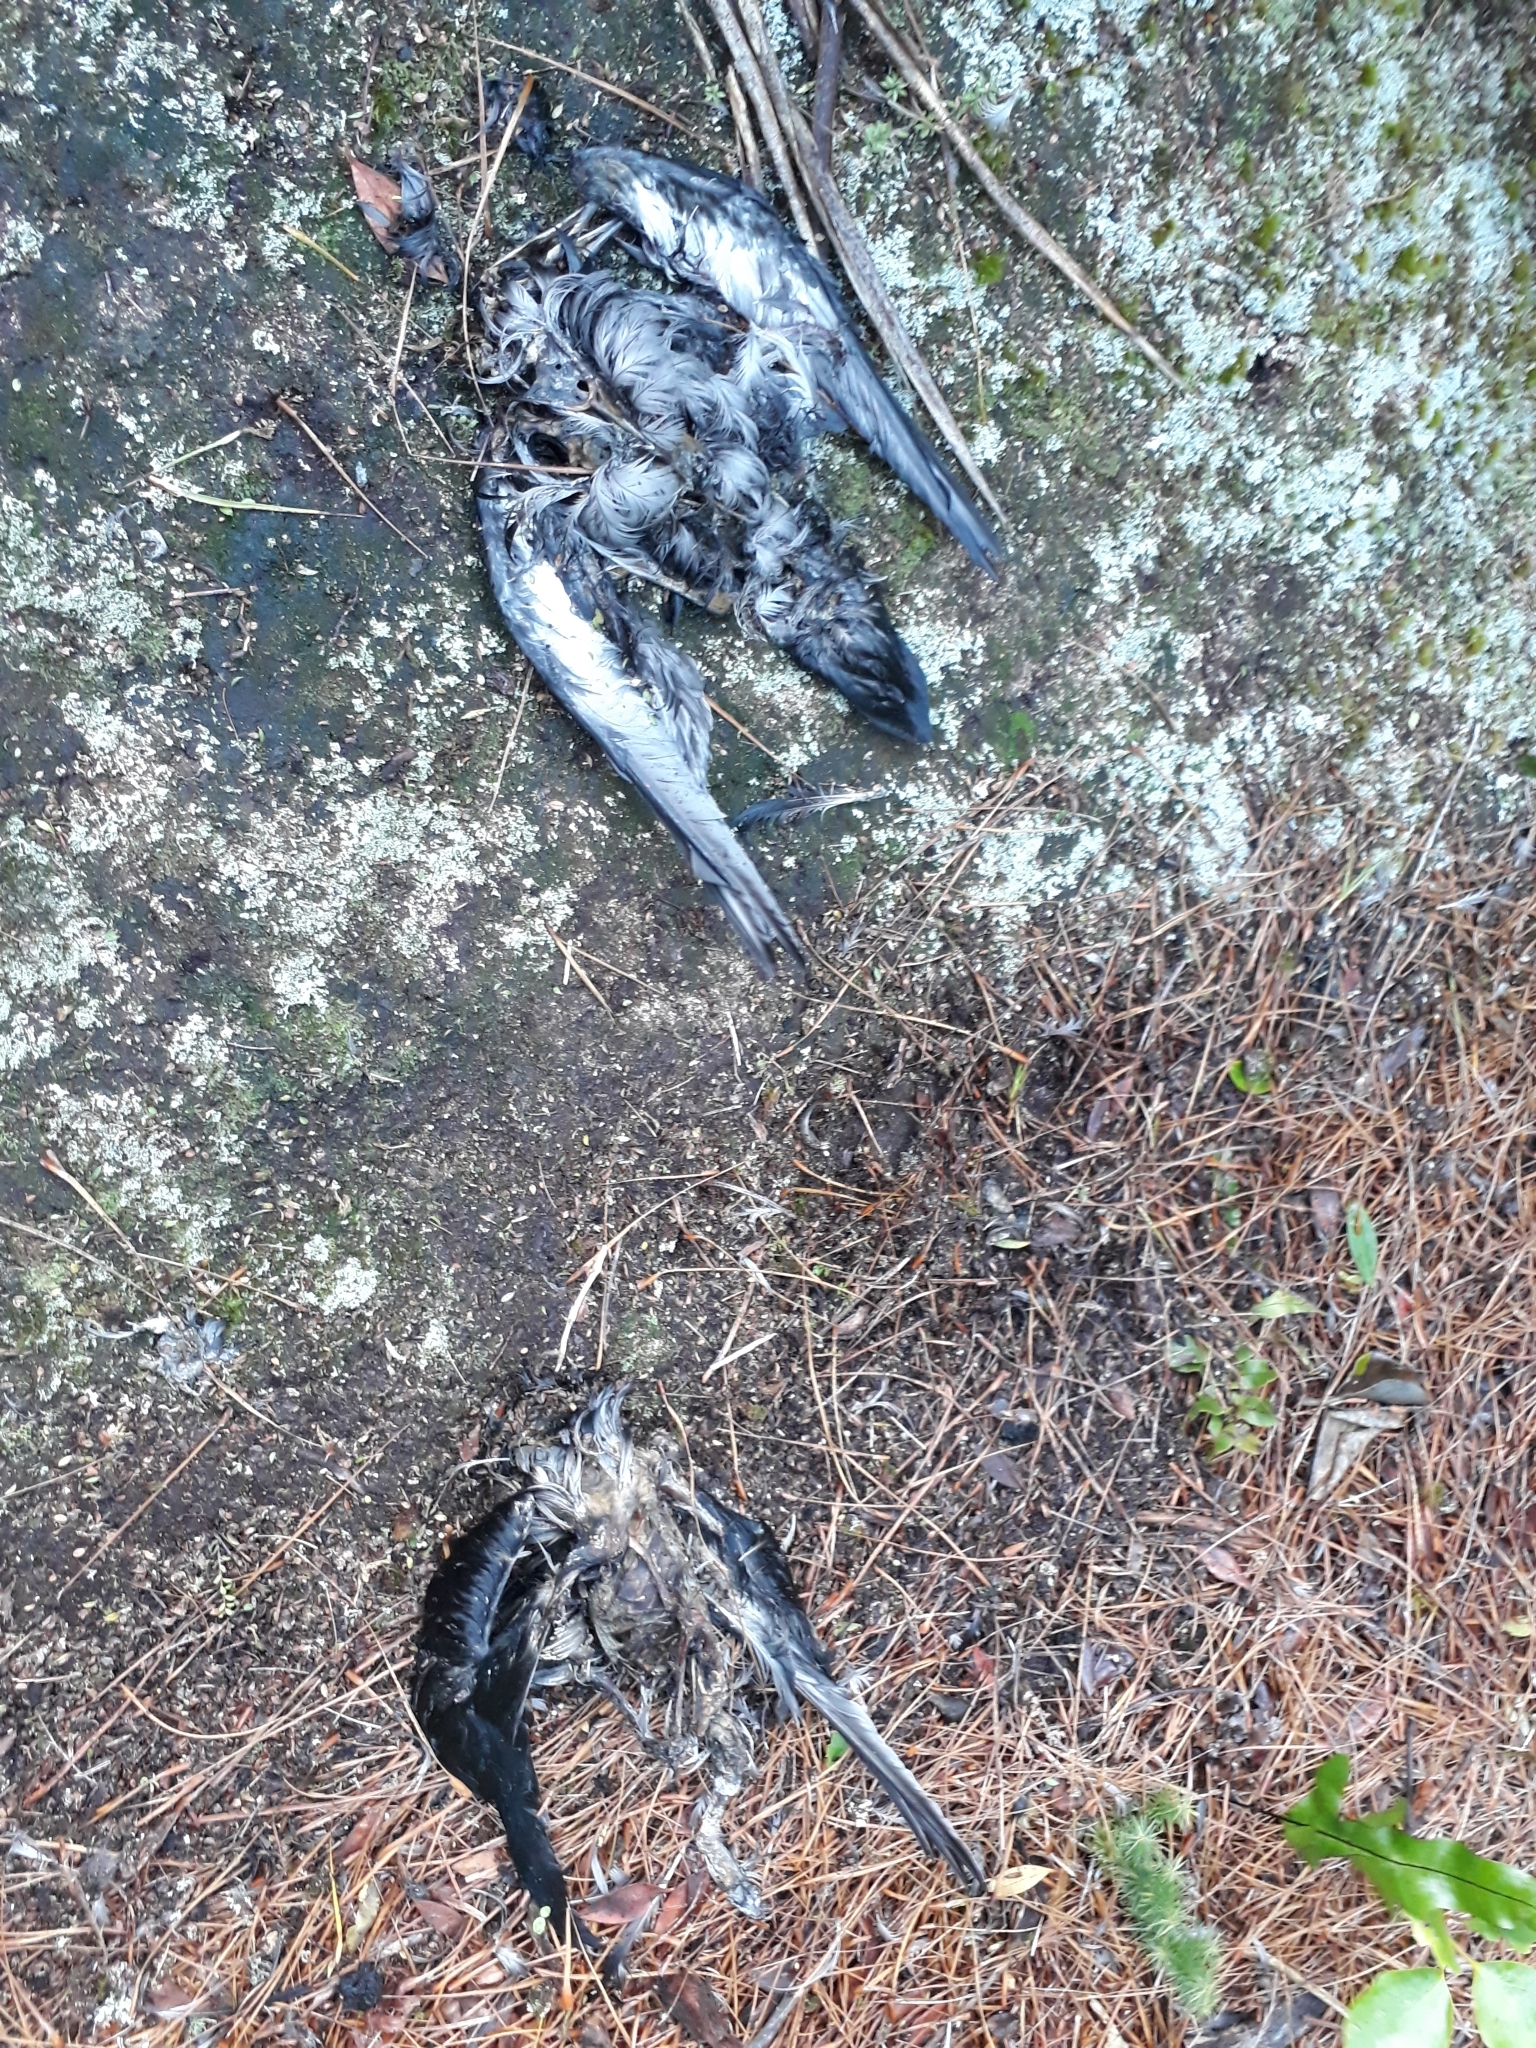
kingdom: Animalia
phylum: Chordata
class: Aves
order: Procellariiformes
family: Procellariidae
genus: Puffinus
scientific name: Puffinus griseus
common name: Sooty shearwater
